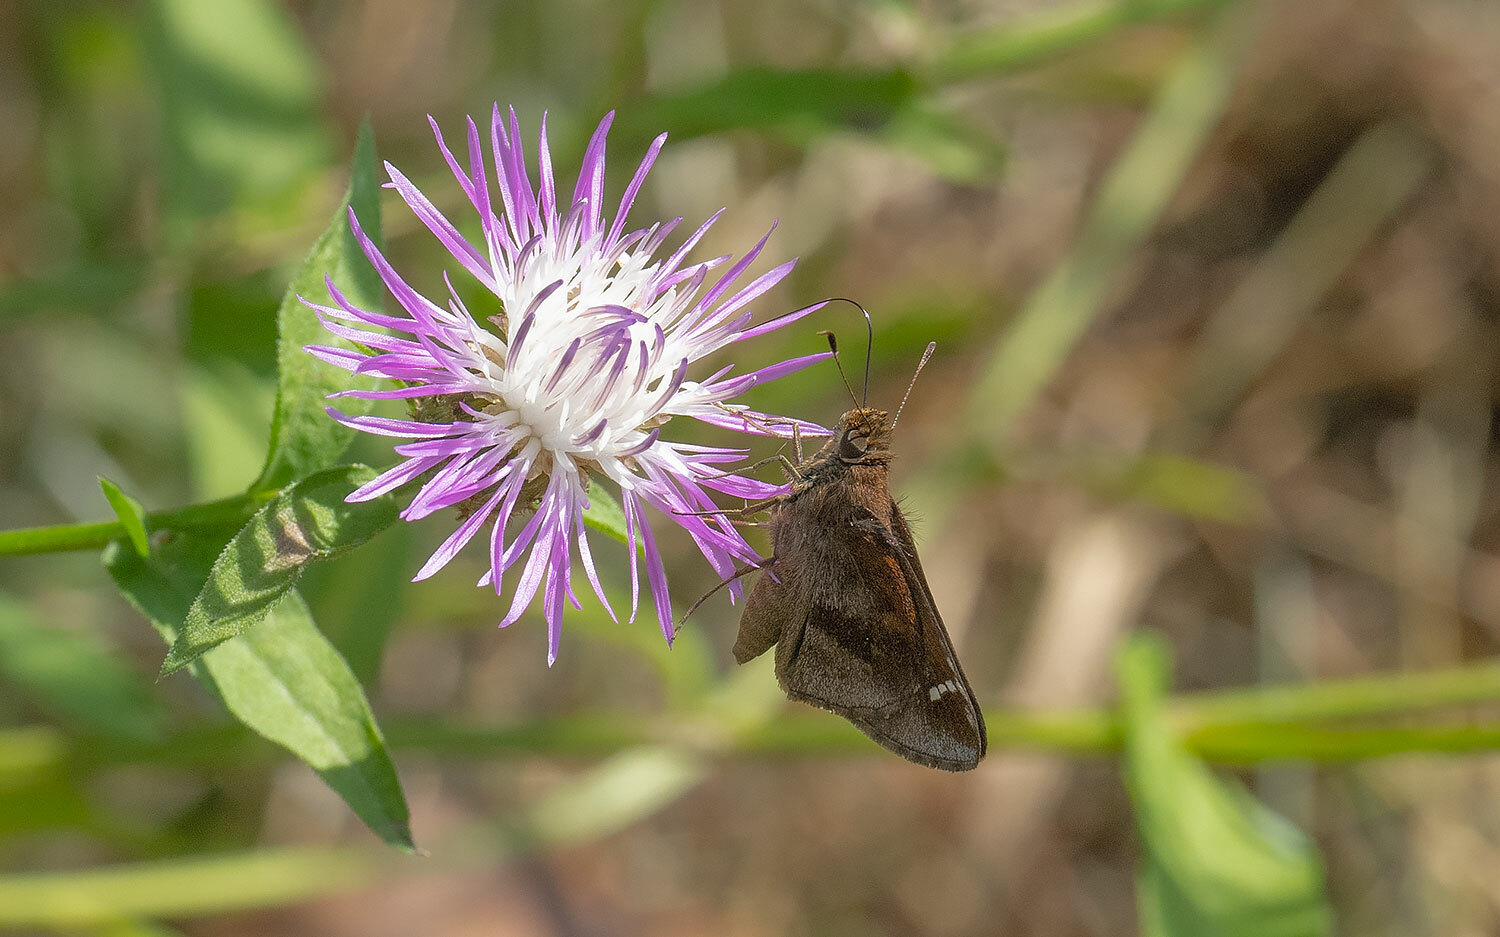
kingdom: Animalia
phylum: Arthropoda
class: Insecta
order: Lepidoptera
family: Hesperiidae
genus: Lerema
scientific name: Lerema accius
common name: Clouded skipper
